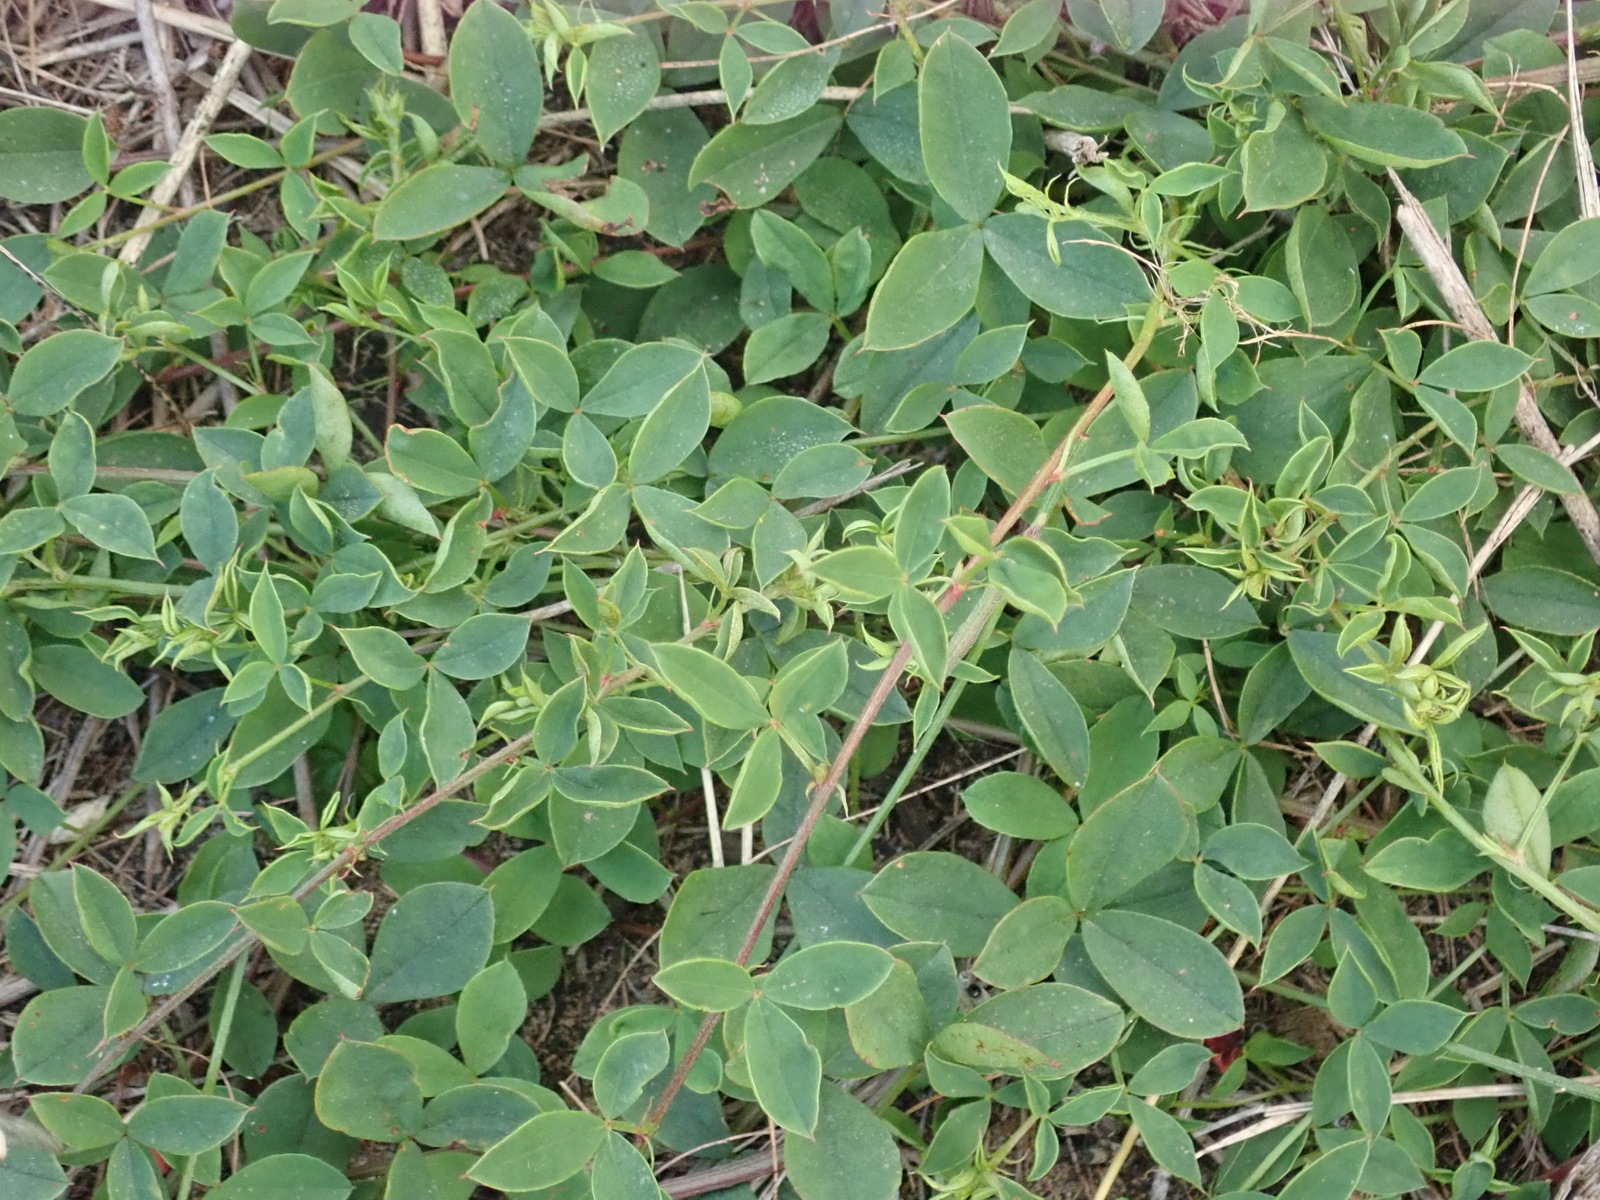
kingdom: Plantae
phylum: Tracheophyta
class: Magnoliopsida
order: Fabales
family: Fabaceae
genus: Indigofera
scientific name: Indigofera erecta
